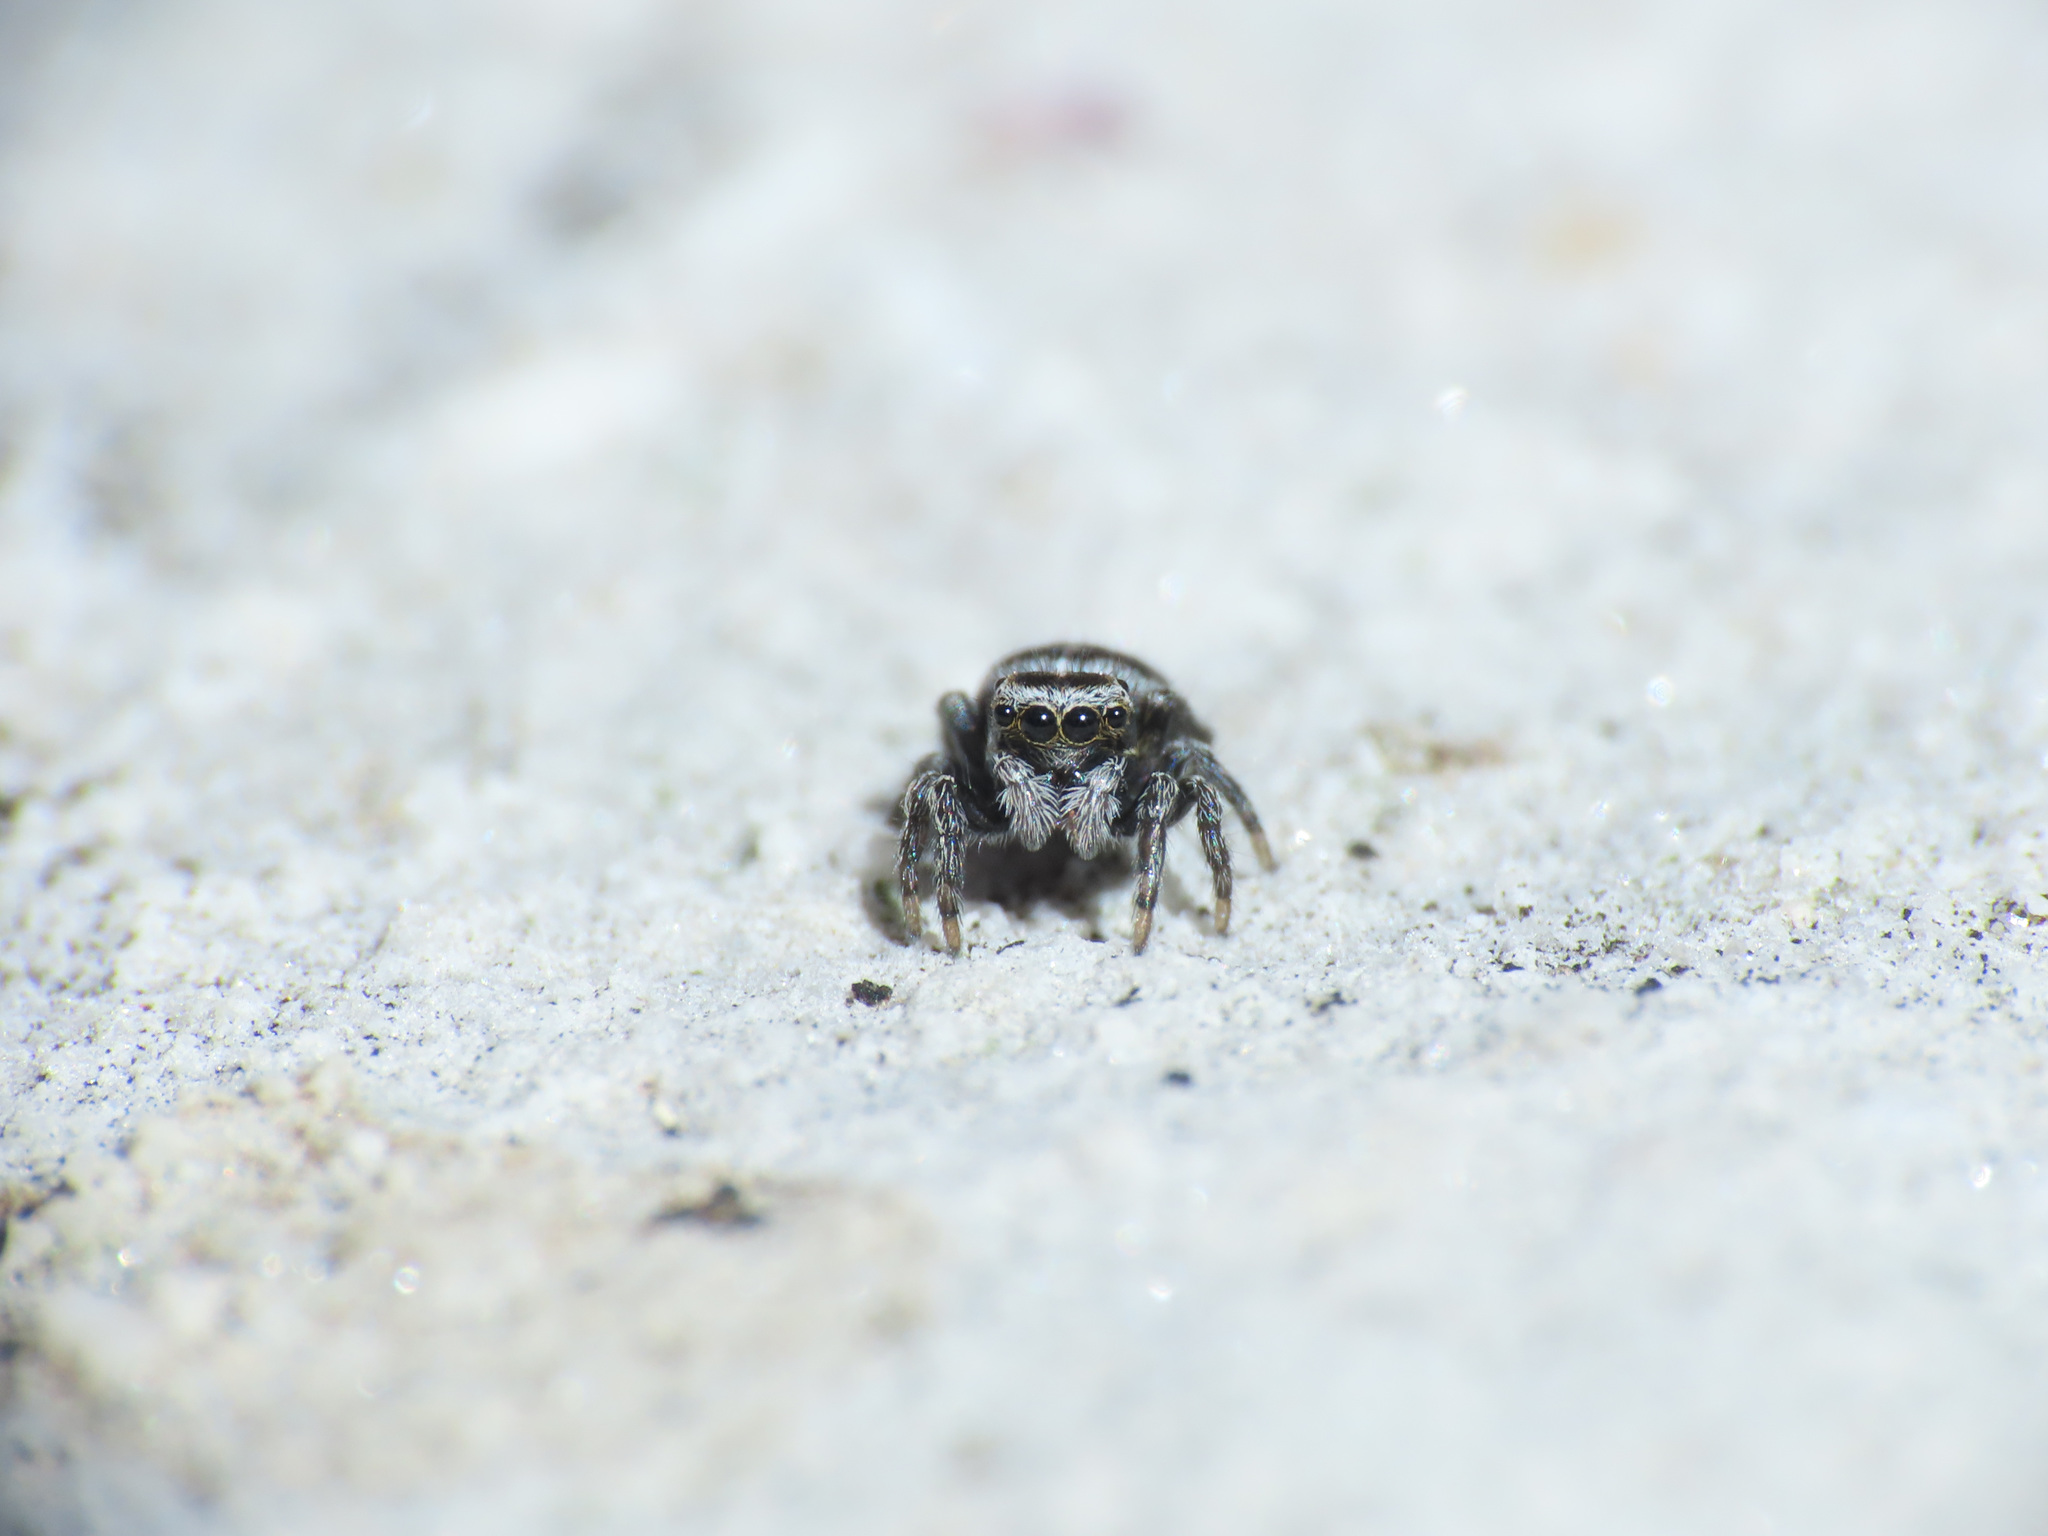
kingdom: Animalia
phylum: Arthropoda
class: Arachnida
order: Araneae
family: Salticidae
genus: Attulus
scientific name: Attulus atricapillus
